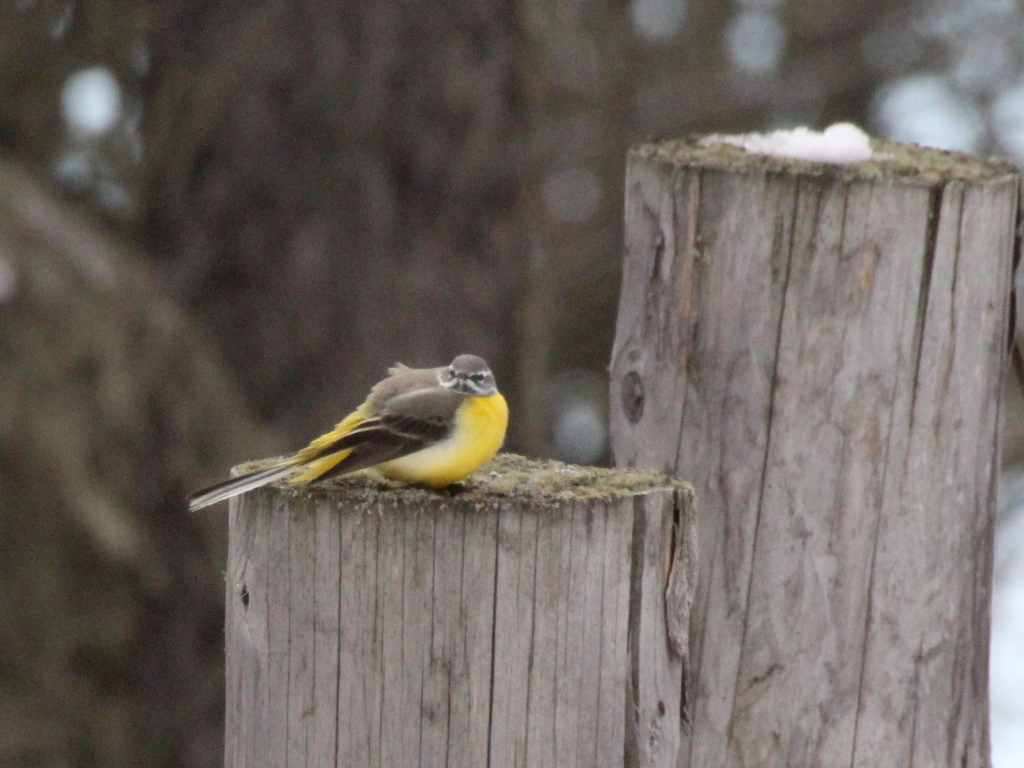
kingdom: Animalia
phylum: Chordata
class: Aves
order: Passeriformes
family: Motacillidae
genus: Motacilla
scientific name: Motacilla cinerea
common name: Grey wagtail
